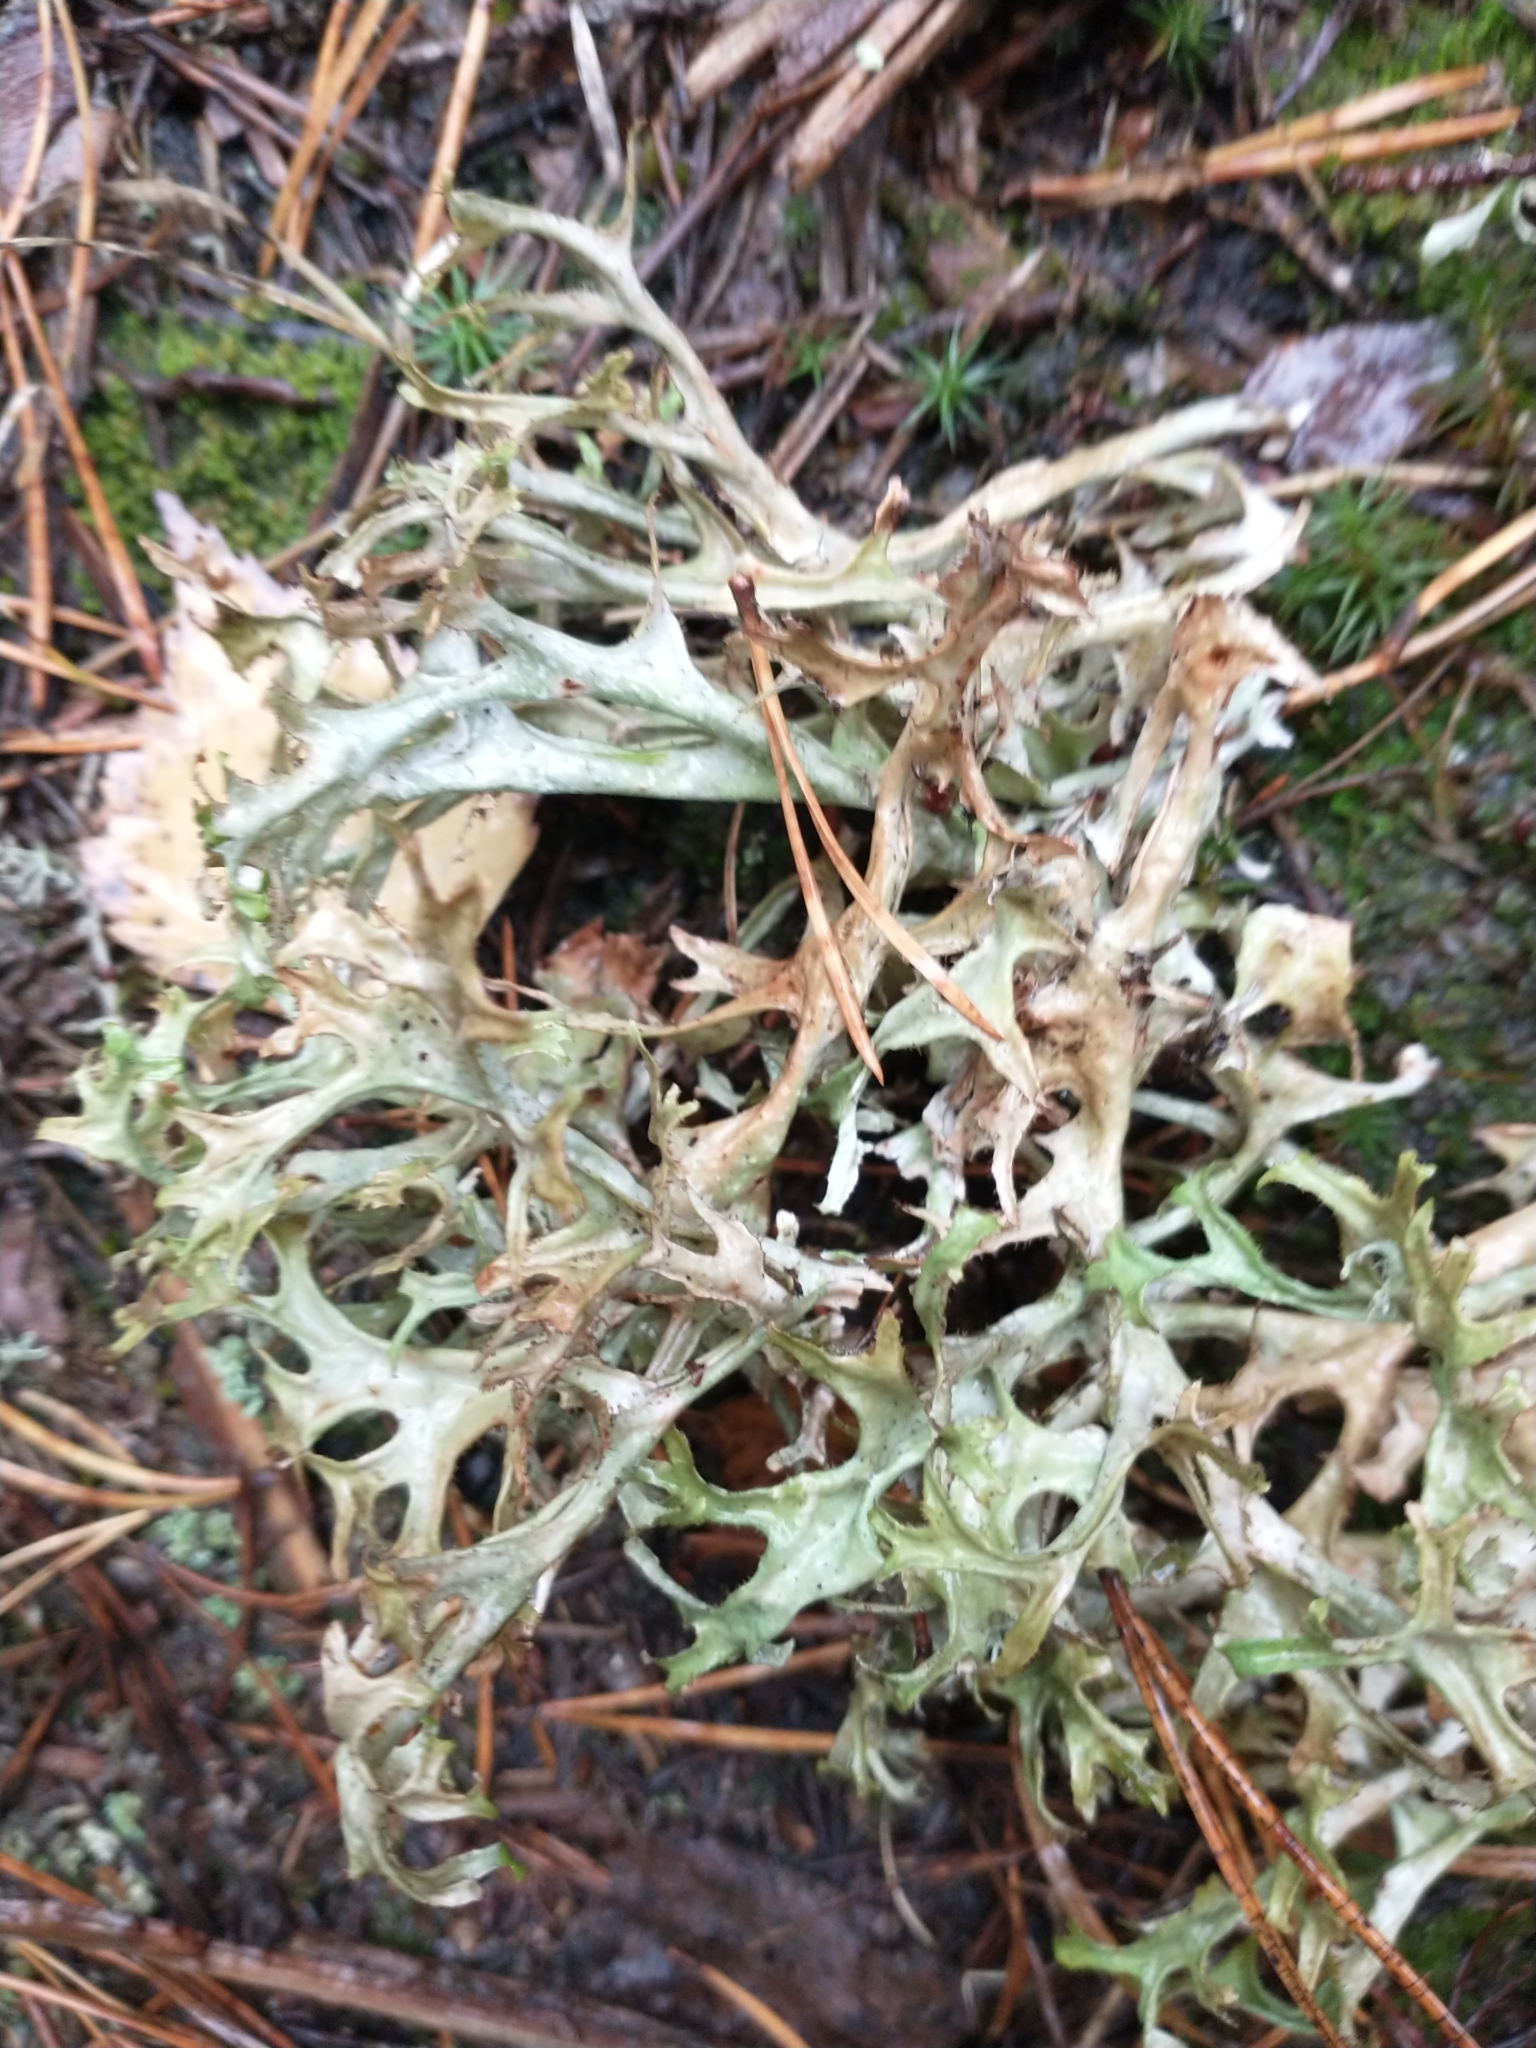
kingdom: Fungi
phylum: Ascomycota
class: Lecanoromycetes
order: Lecanorales
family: Parmeliaceae
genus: Cetraria
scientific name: Cetraria islandica
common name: Iceland lichen
